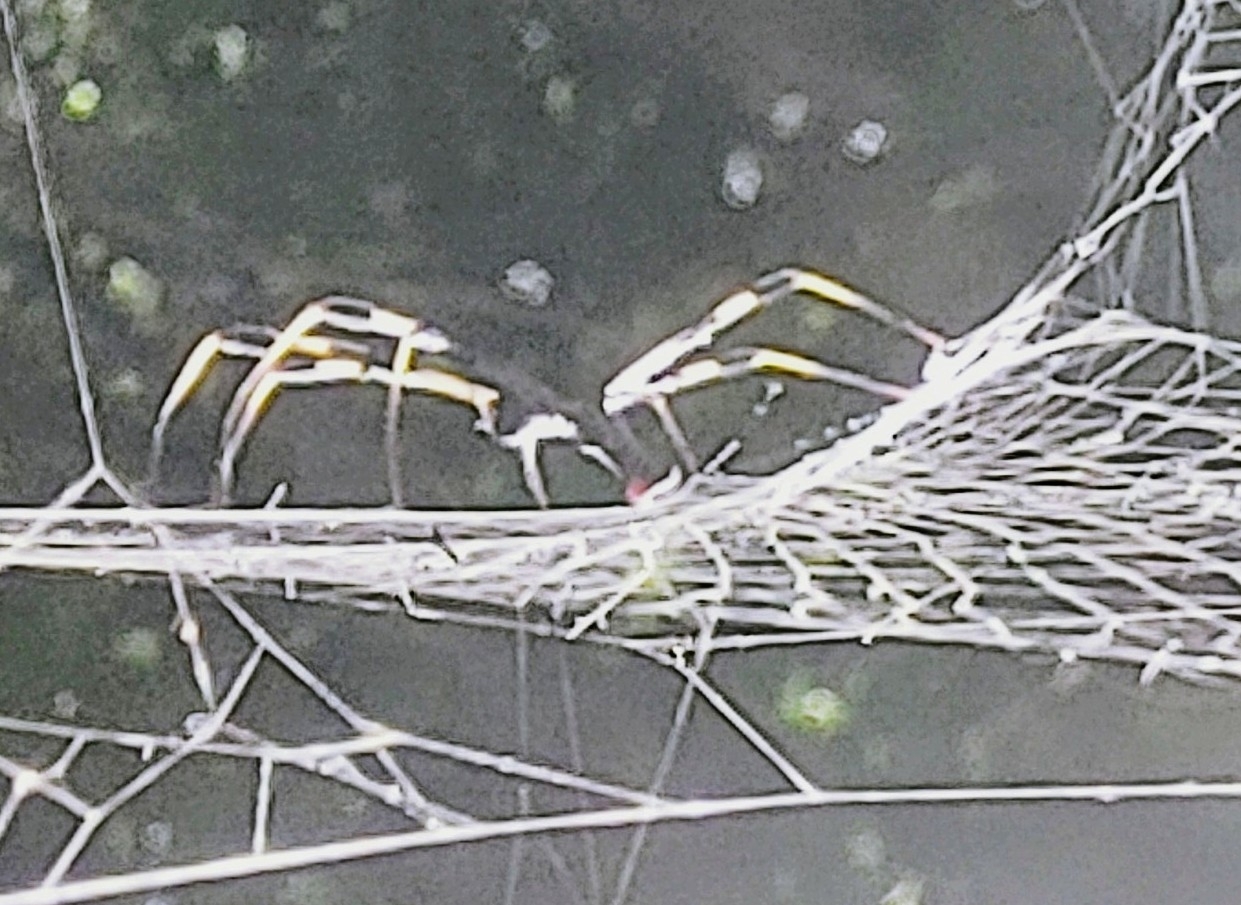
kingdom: Animalia
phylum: Arthropoda
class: Arachnida
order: Araneae
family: Araneidae
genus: Trichonephila
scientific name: Trichonephila clavipes
